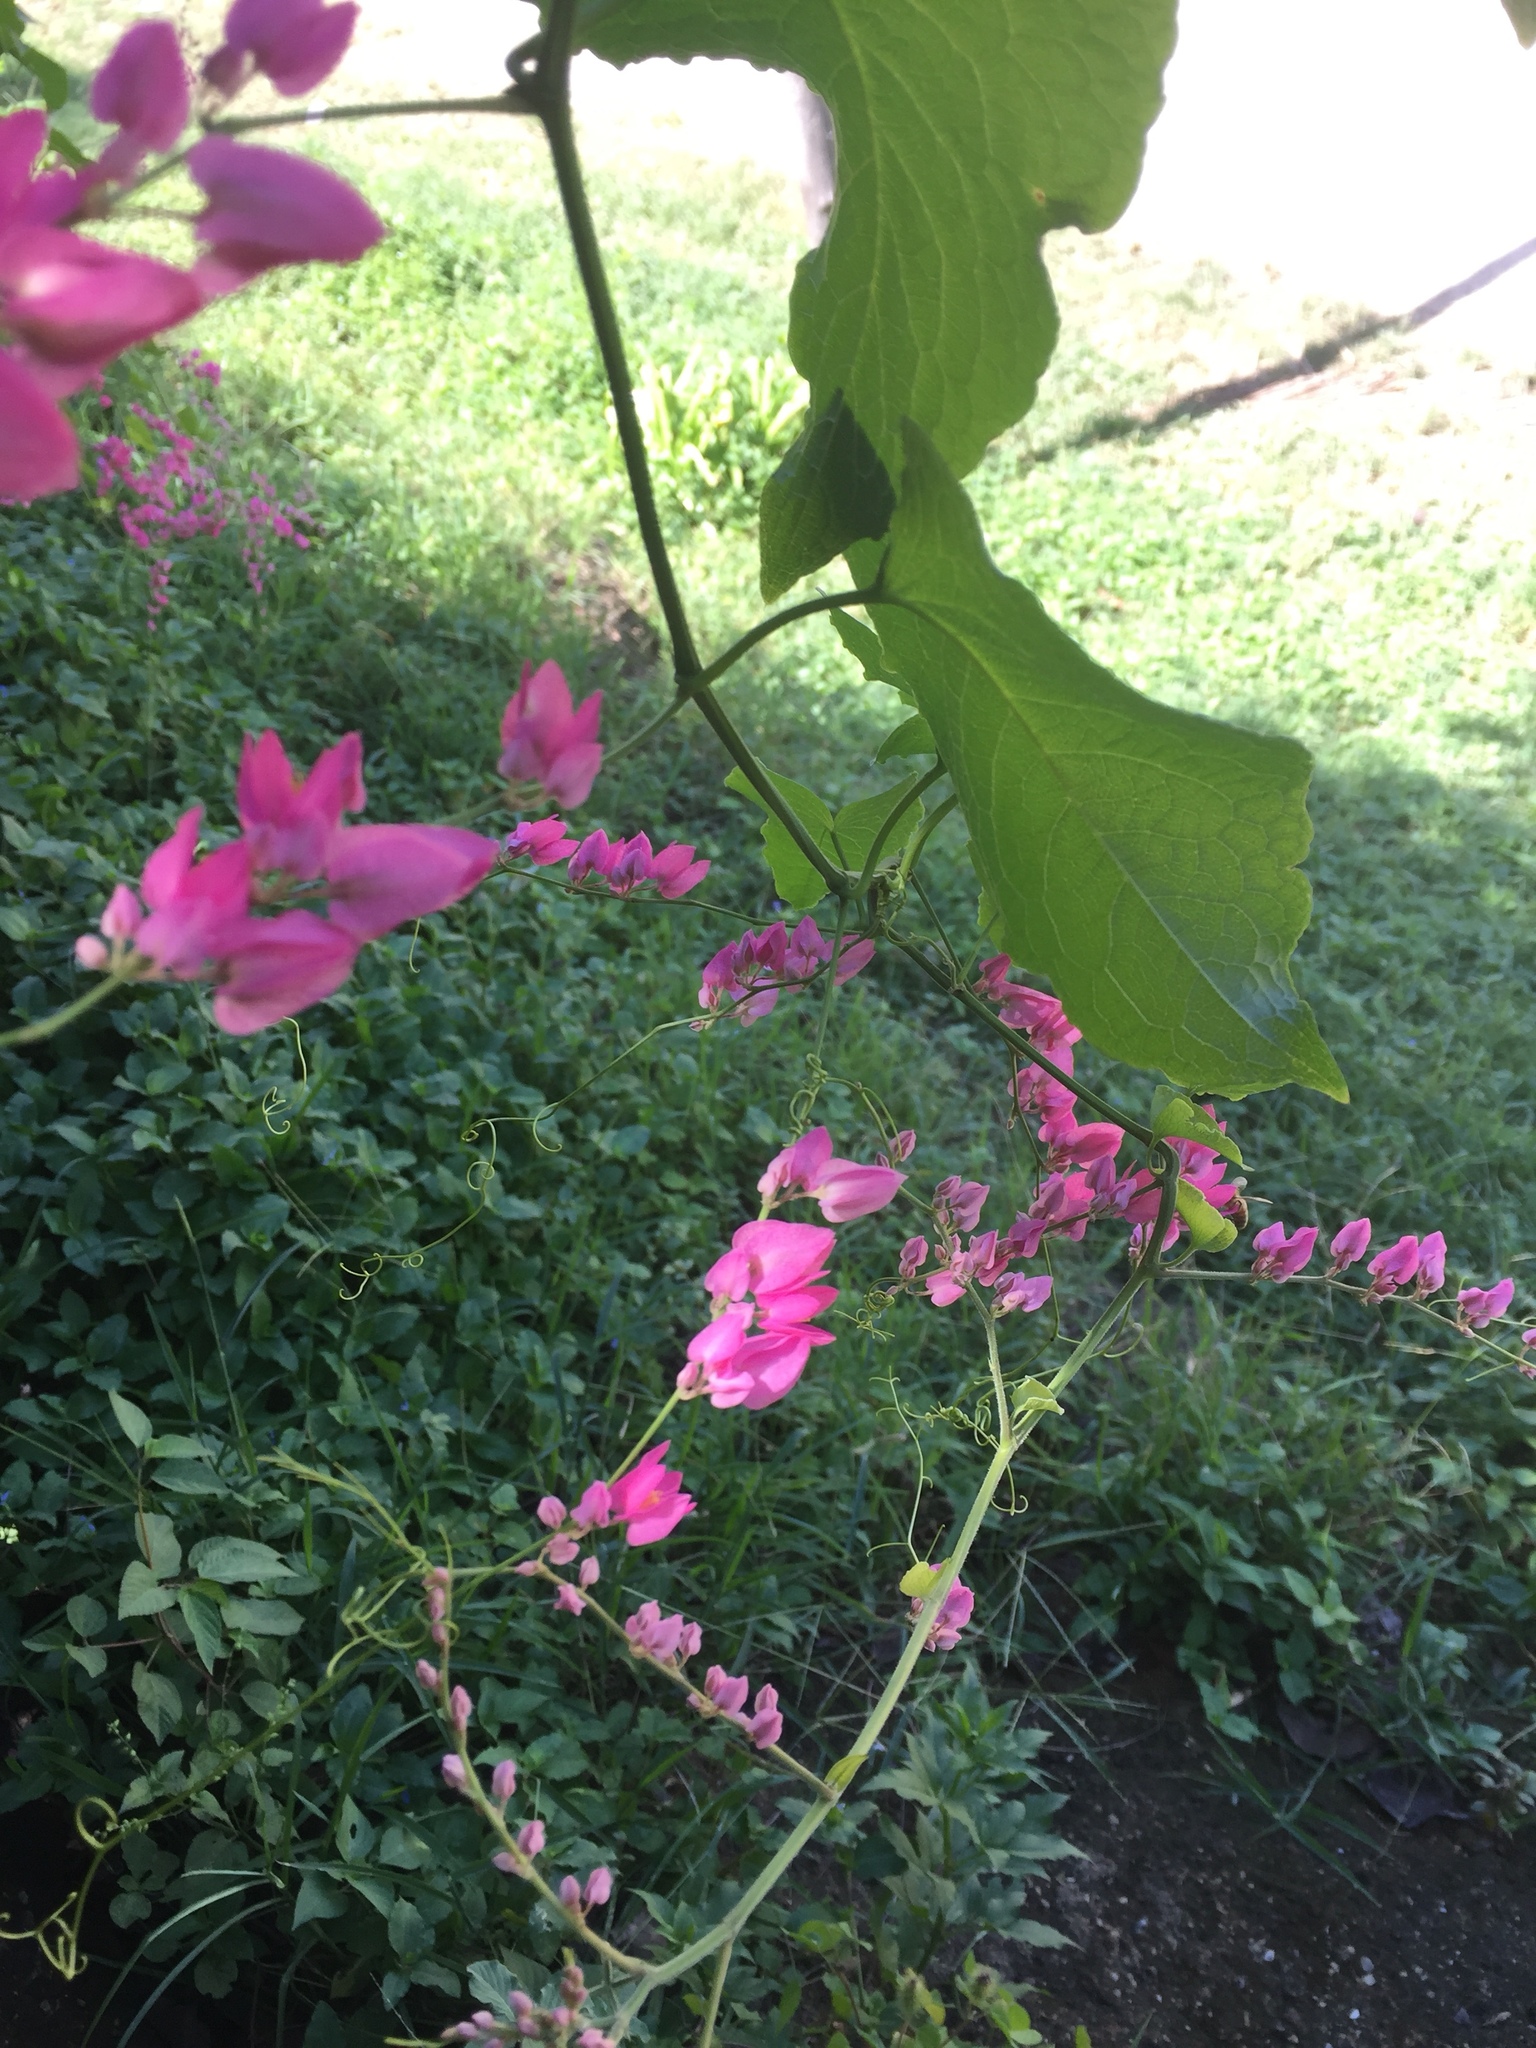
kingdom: Plantae
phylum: Tracheophyta
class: Magnoliopsida
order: Caryophyllales
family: Polygonaceae
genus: Antigonon
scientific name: Antigonon leptopus
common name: Coral vine
